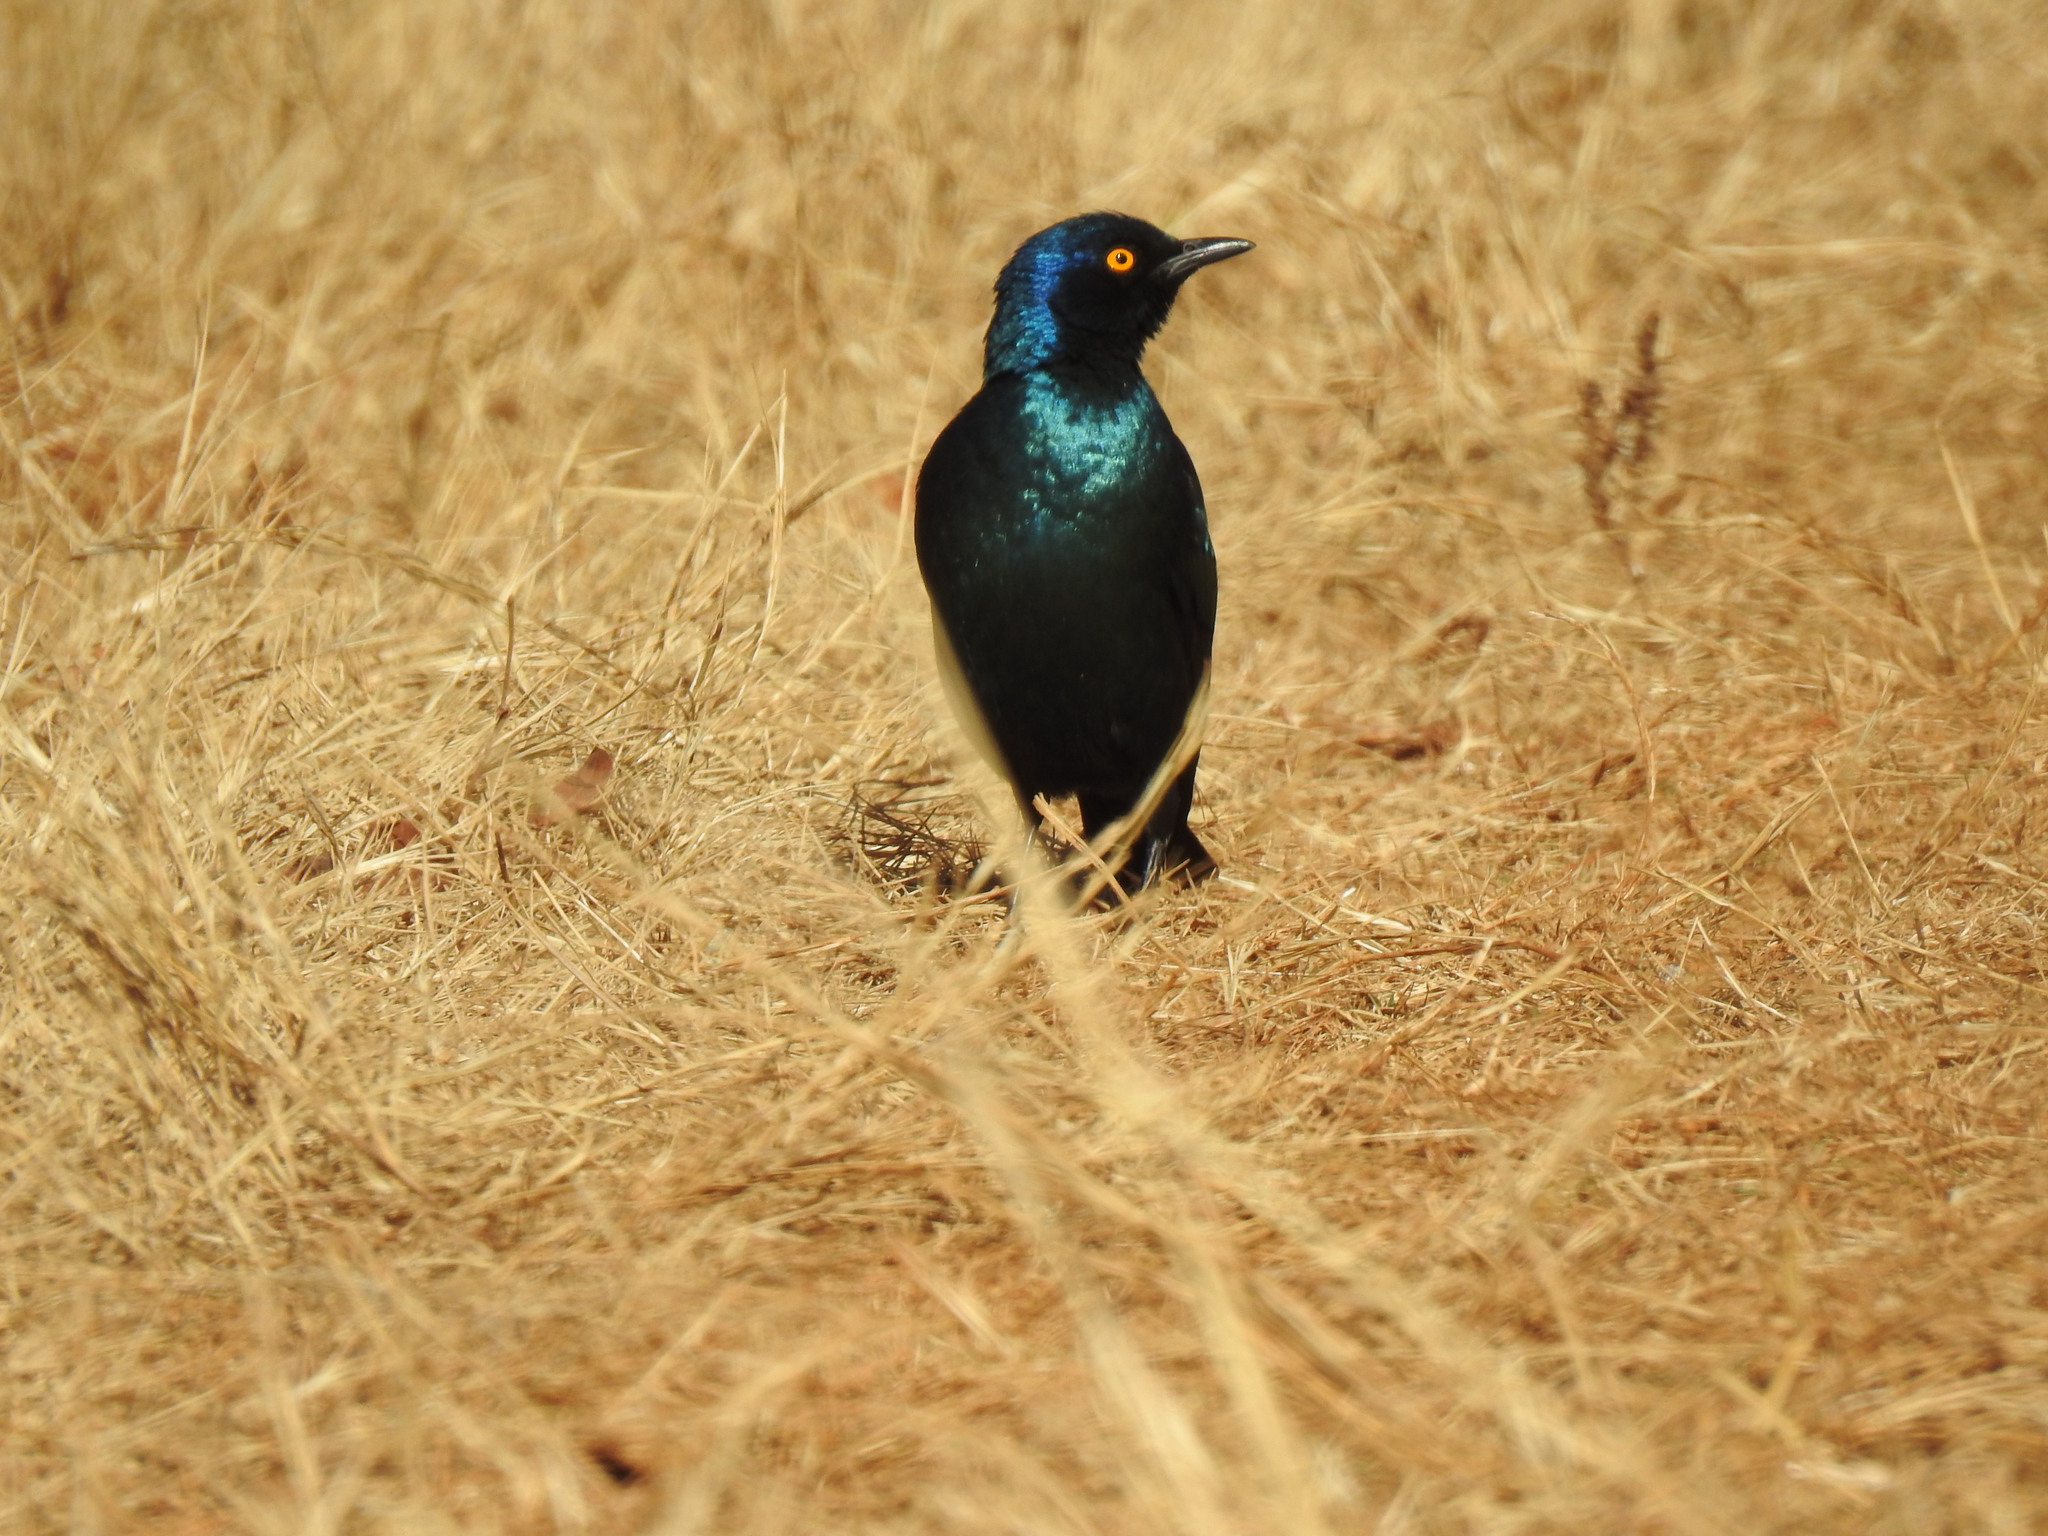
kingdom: Animalia
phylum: Chordata
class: Aves
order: Passeriformes
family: Sturnidae
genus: Lamprotornis
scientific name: Lamprotornis nitens
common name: Cape starling
